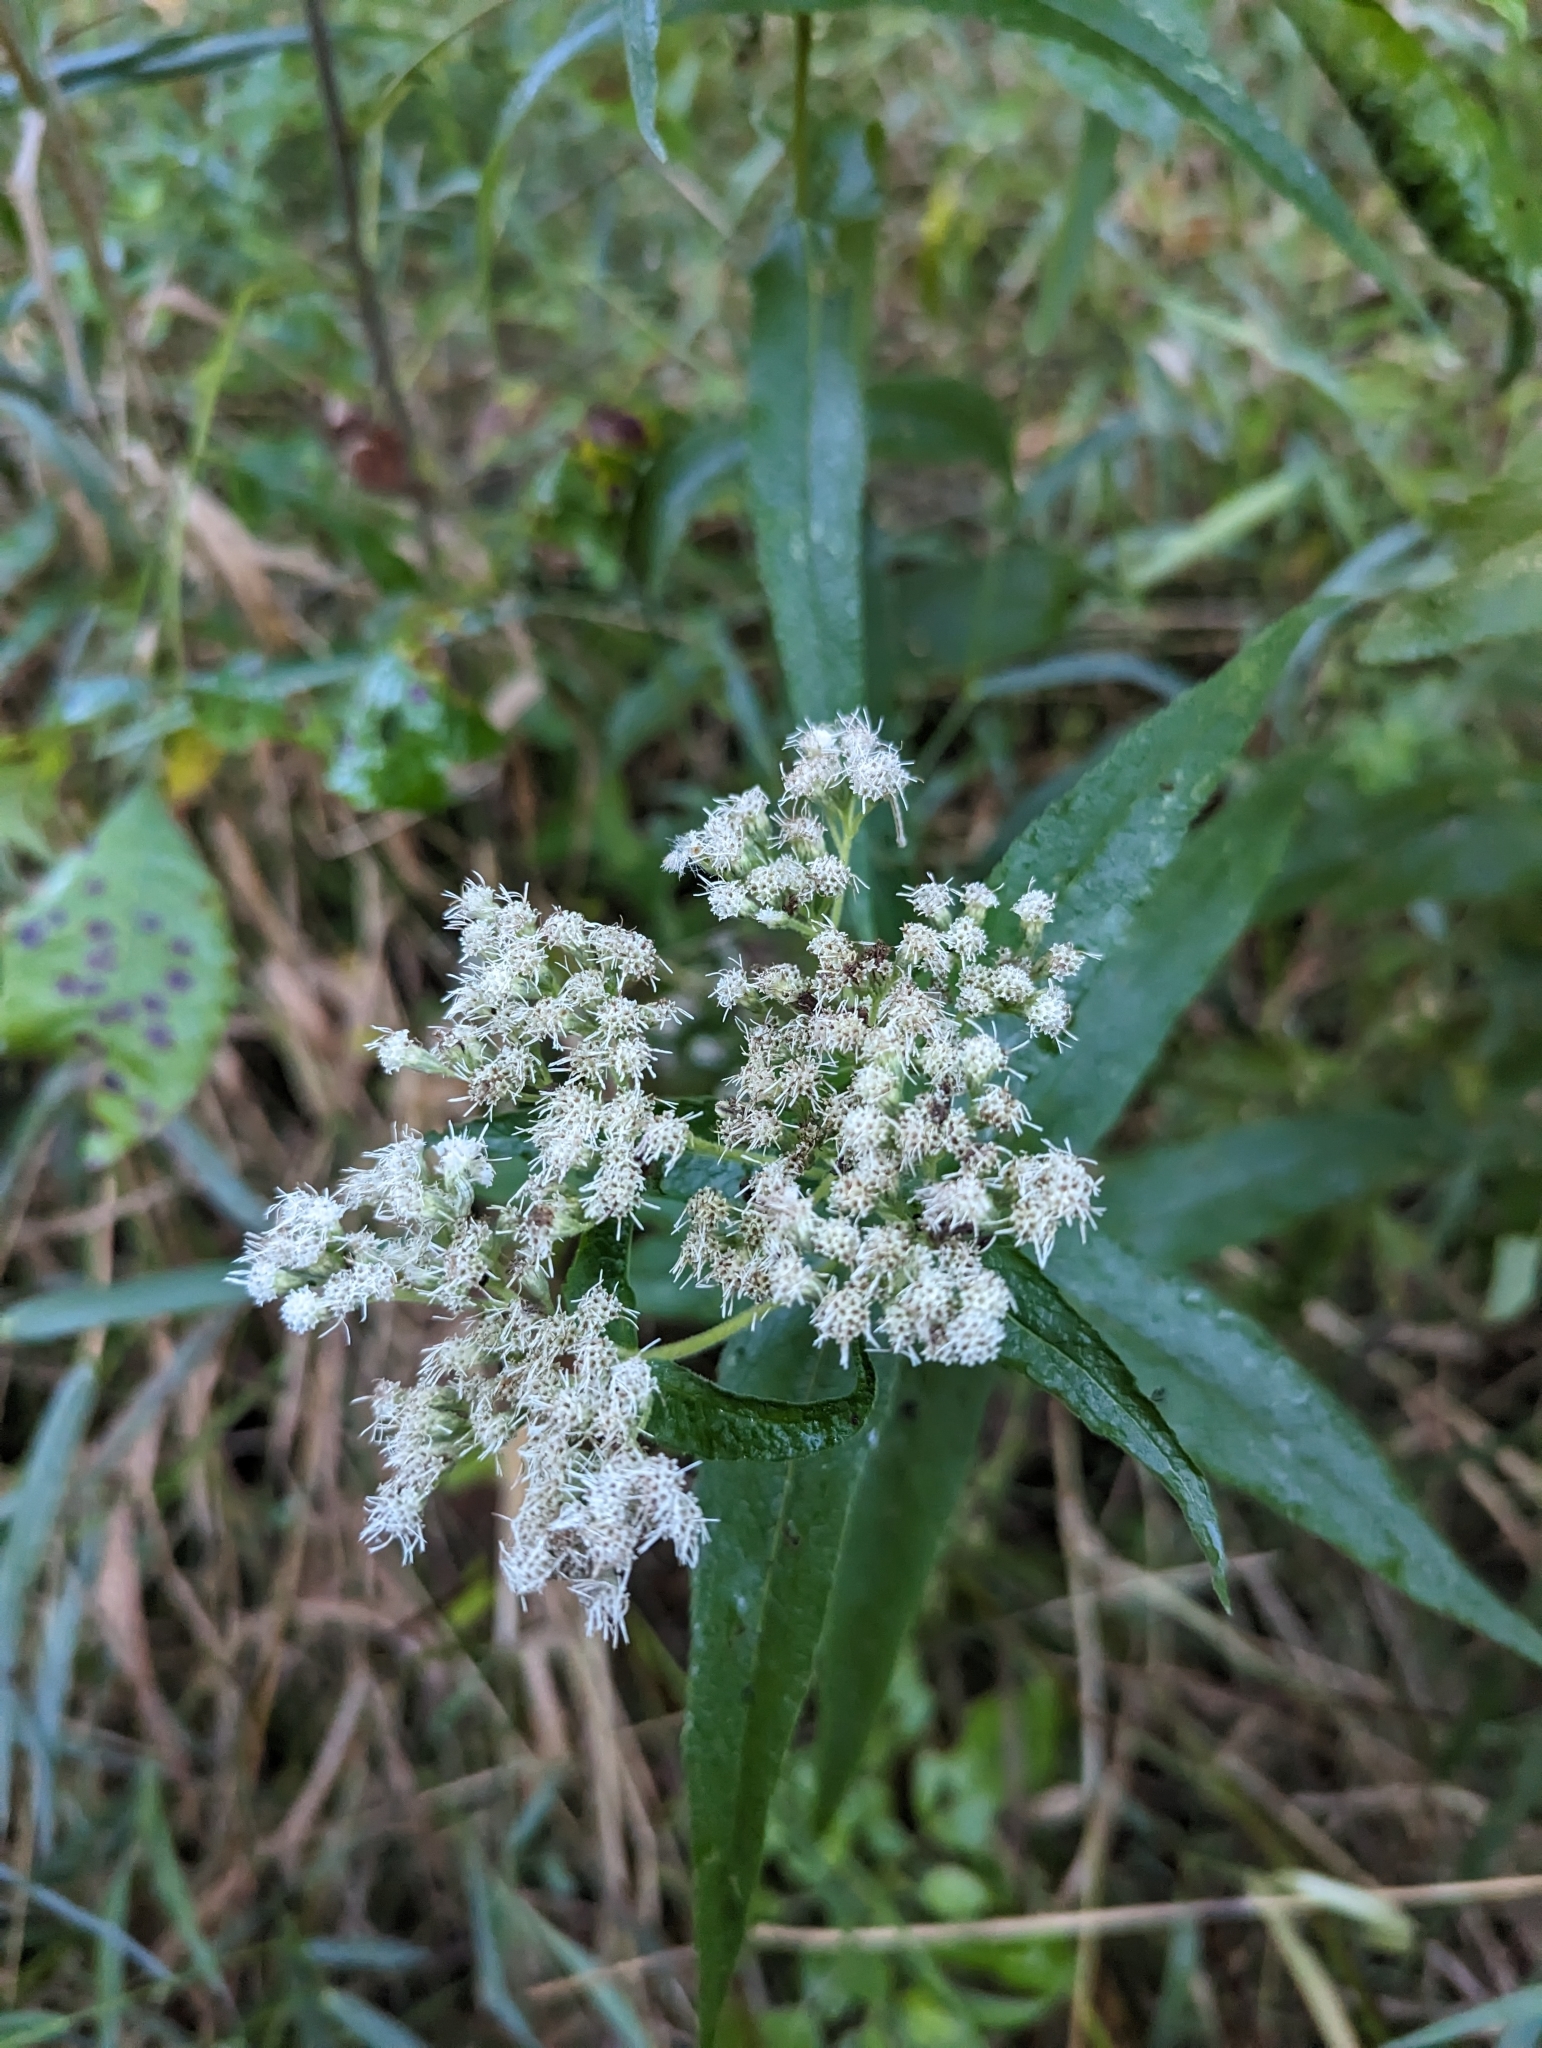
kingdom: Plantae
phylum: Tracheophyta
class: Magnoliopsida
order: Asterales
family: Asteraceae
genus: Eupatorium
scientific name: Eupatorium perfoliatum
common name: Boneset
